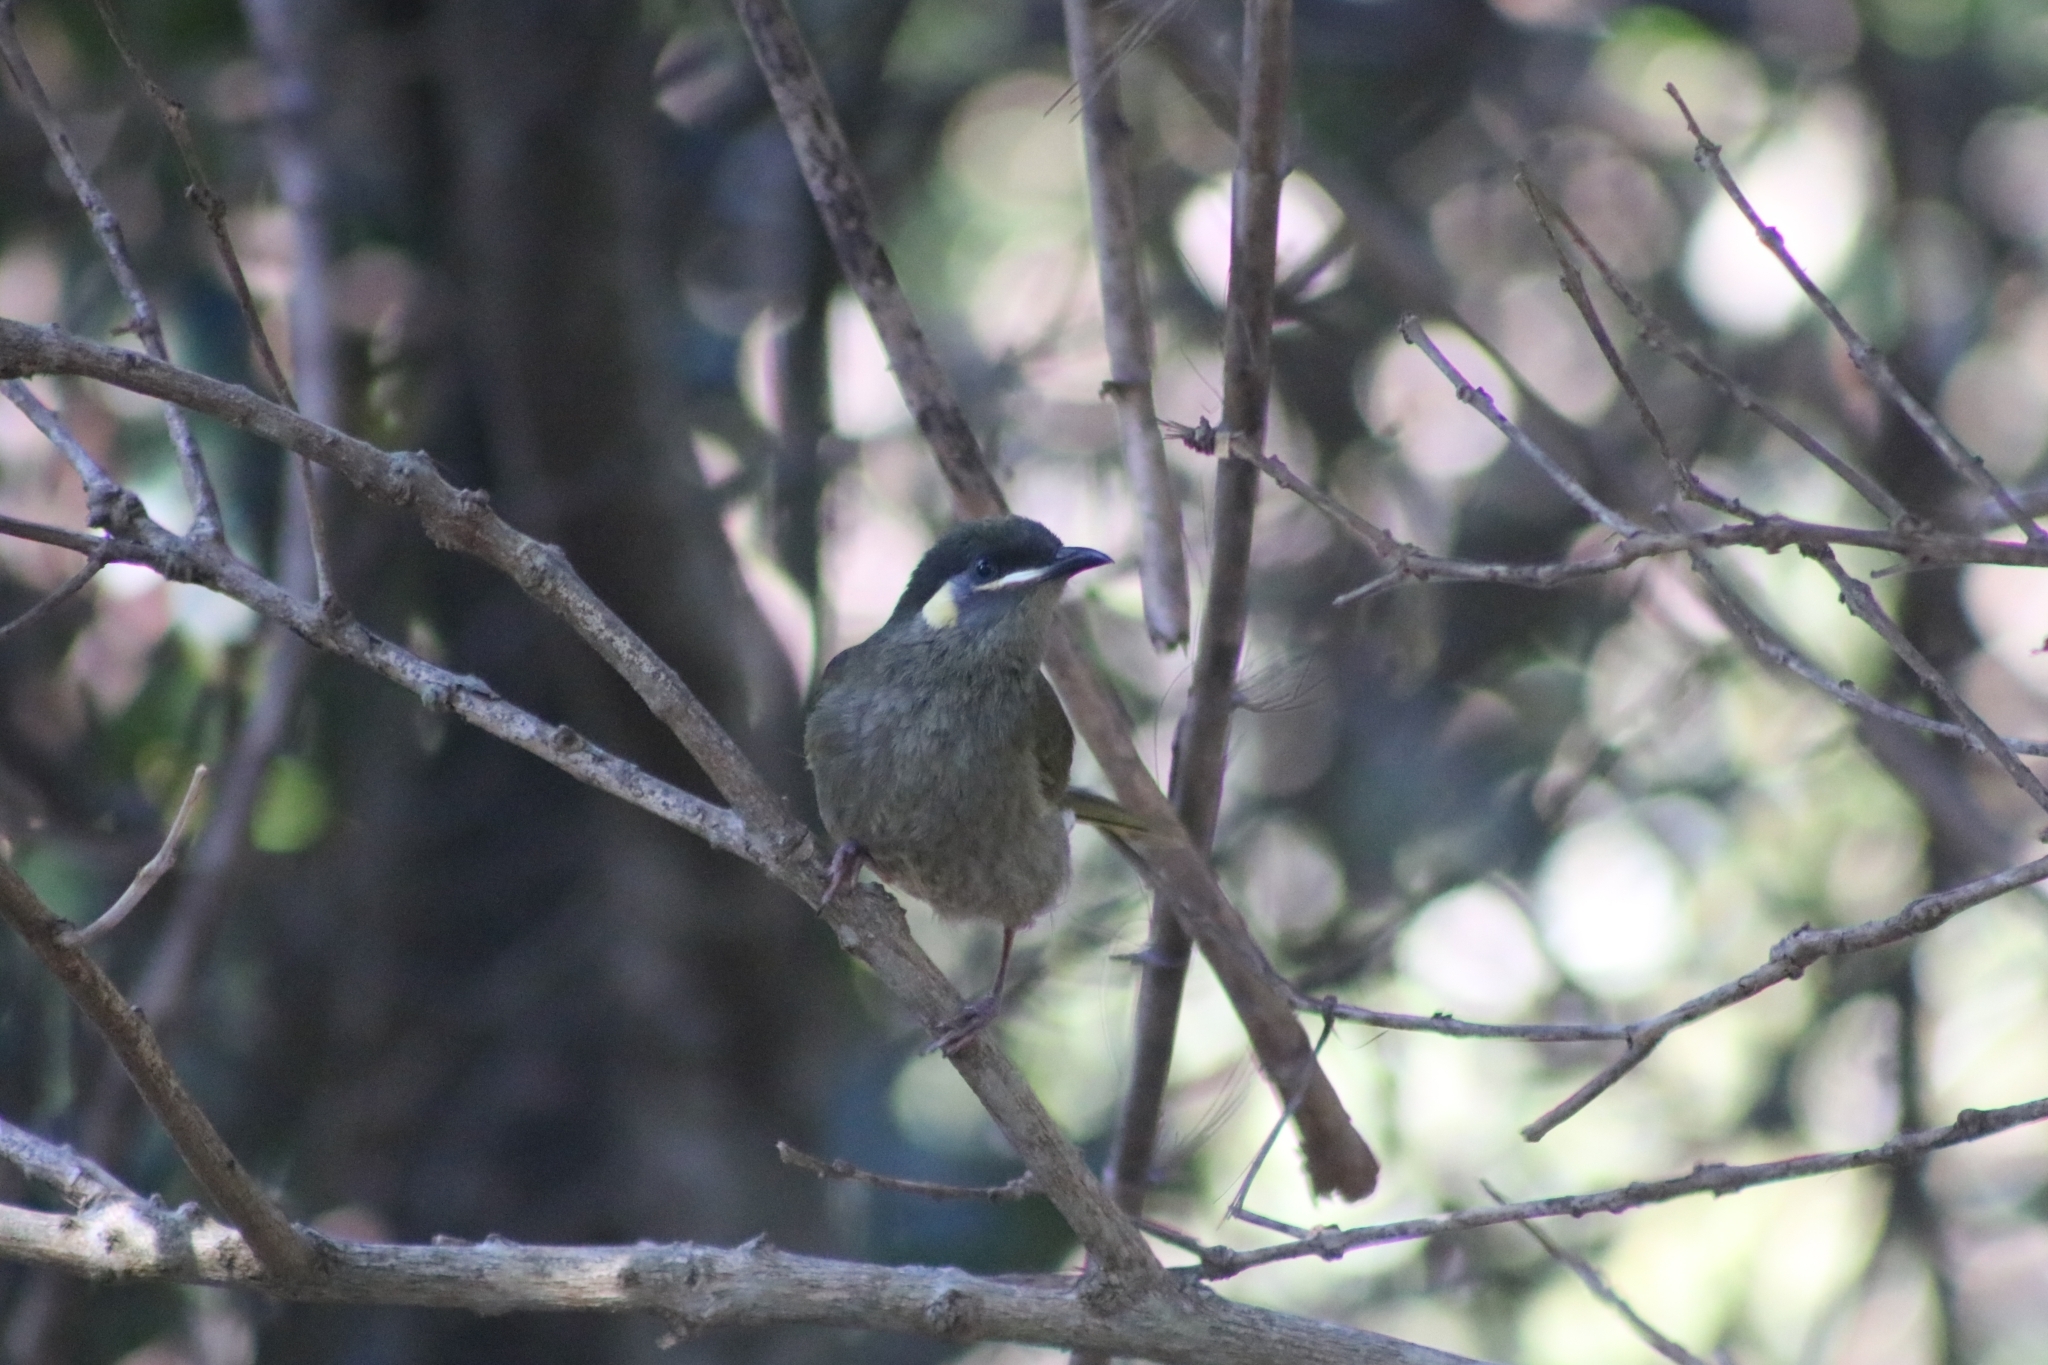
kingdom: Animalia
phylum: Chordata
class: Aves
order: Passeriformes
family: Meliphagidae
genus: Meliphaga
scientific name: Meliphaga lewinii
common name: Lewin's honeyeater
